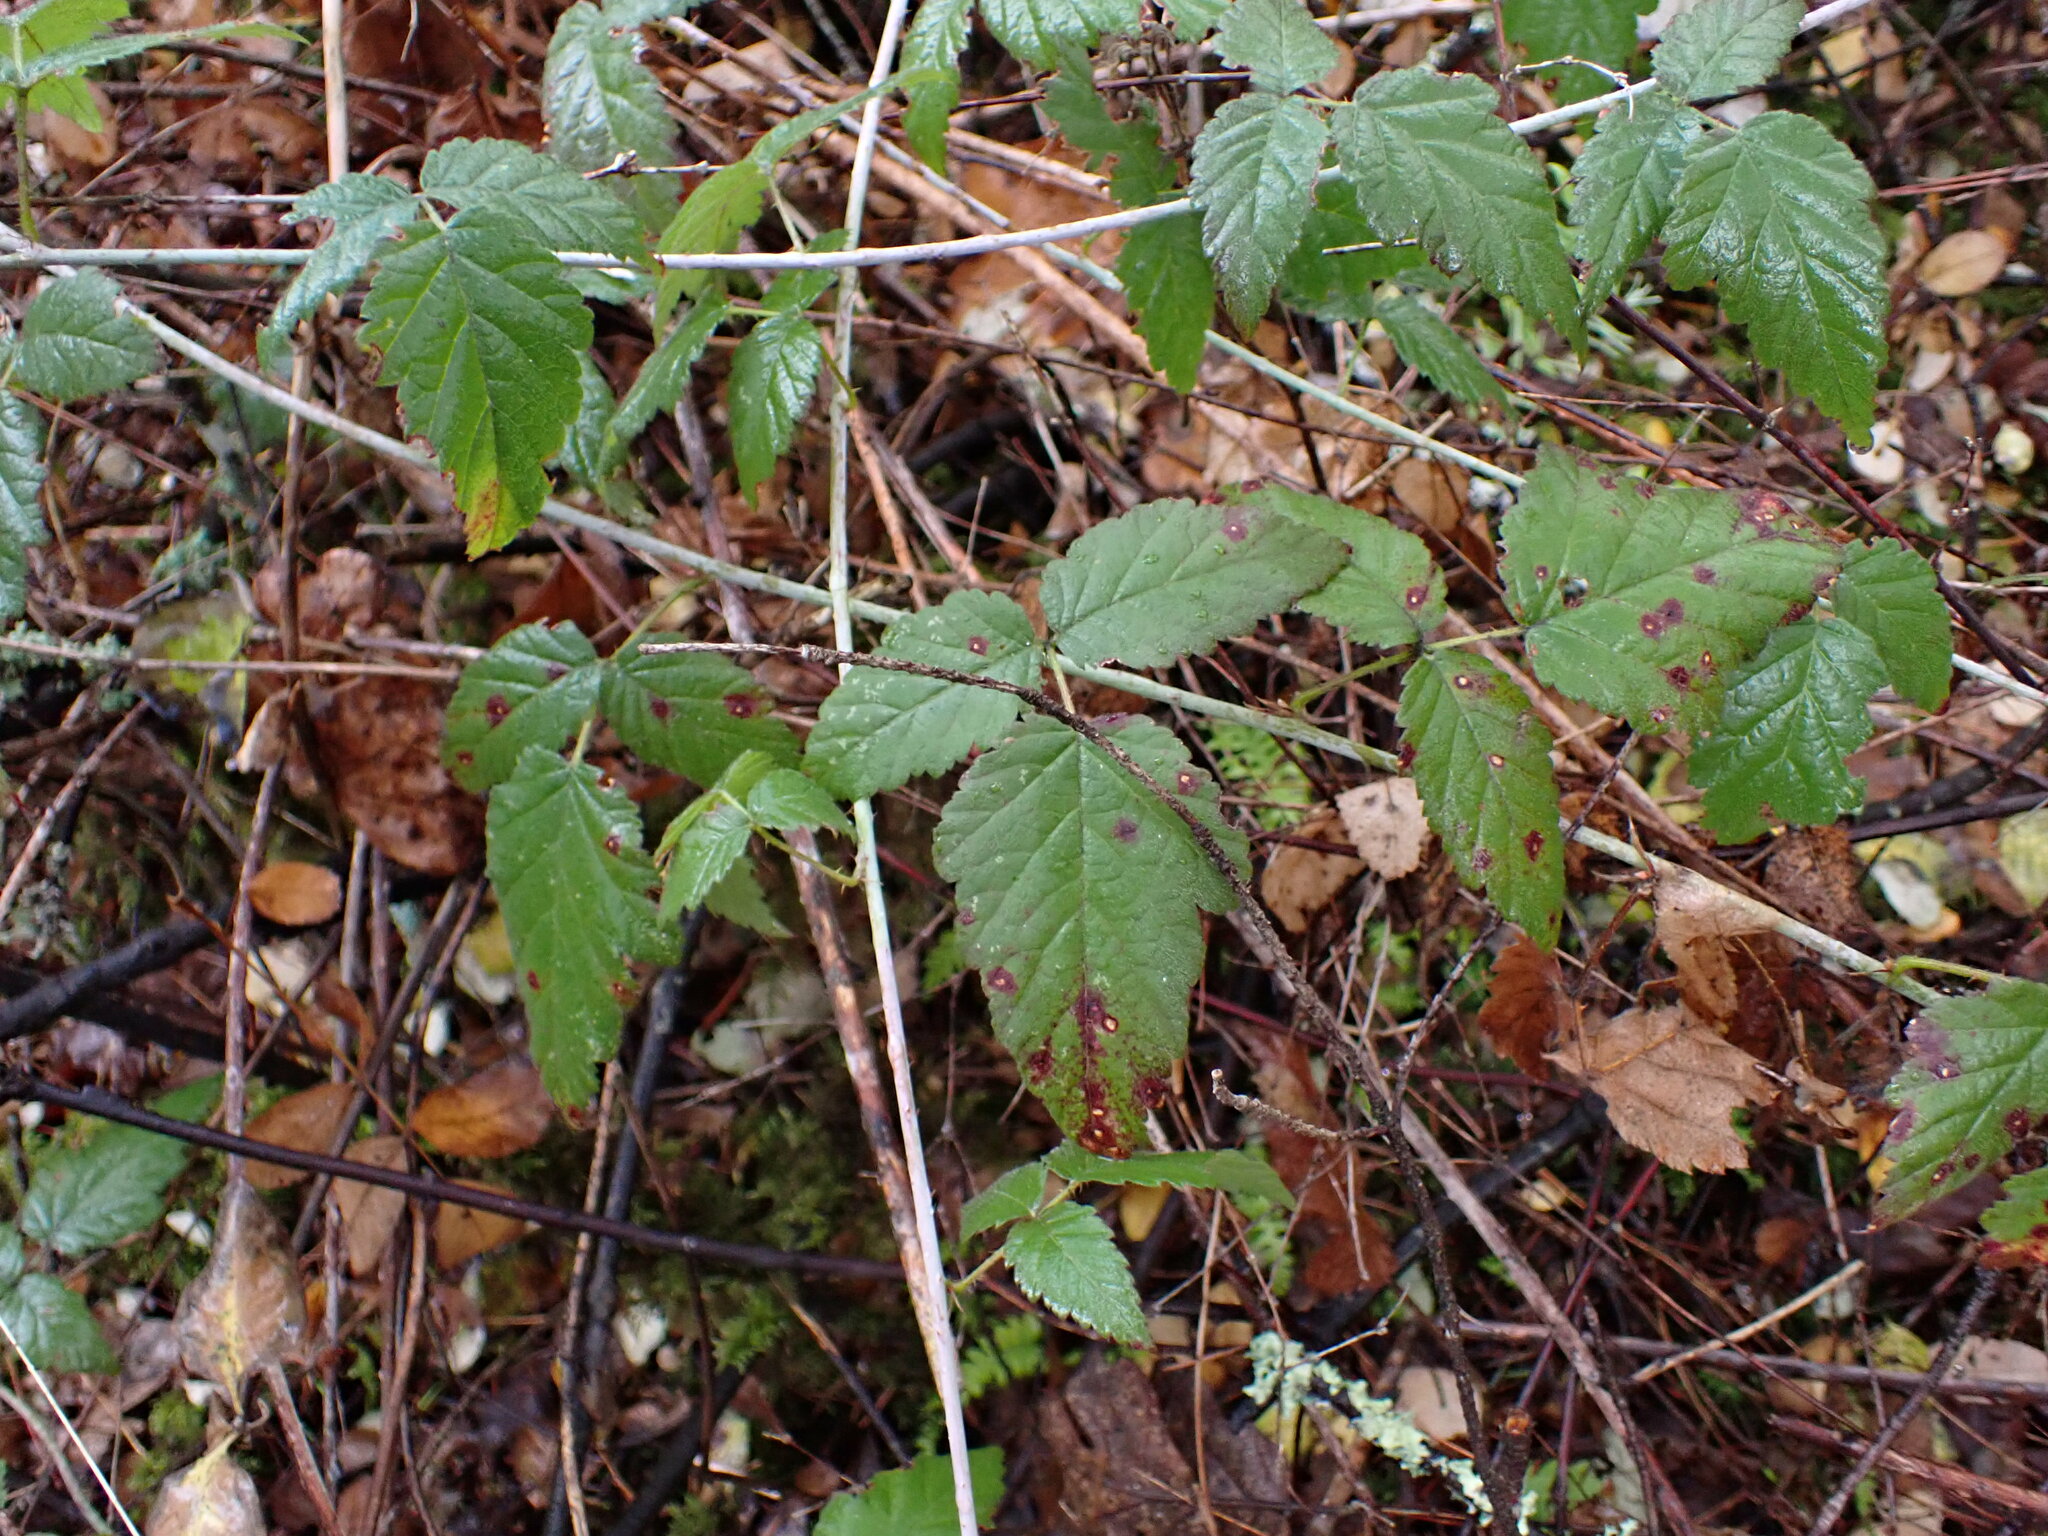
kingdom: Plantae
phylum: Tracheophyta
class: Magnoliopsida
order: Rosales
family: Rosaceae
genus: Rubus
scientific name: Rubus ursinus
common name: Pacific blackberry
